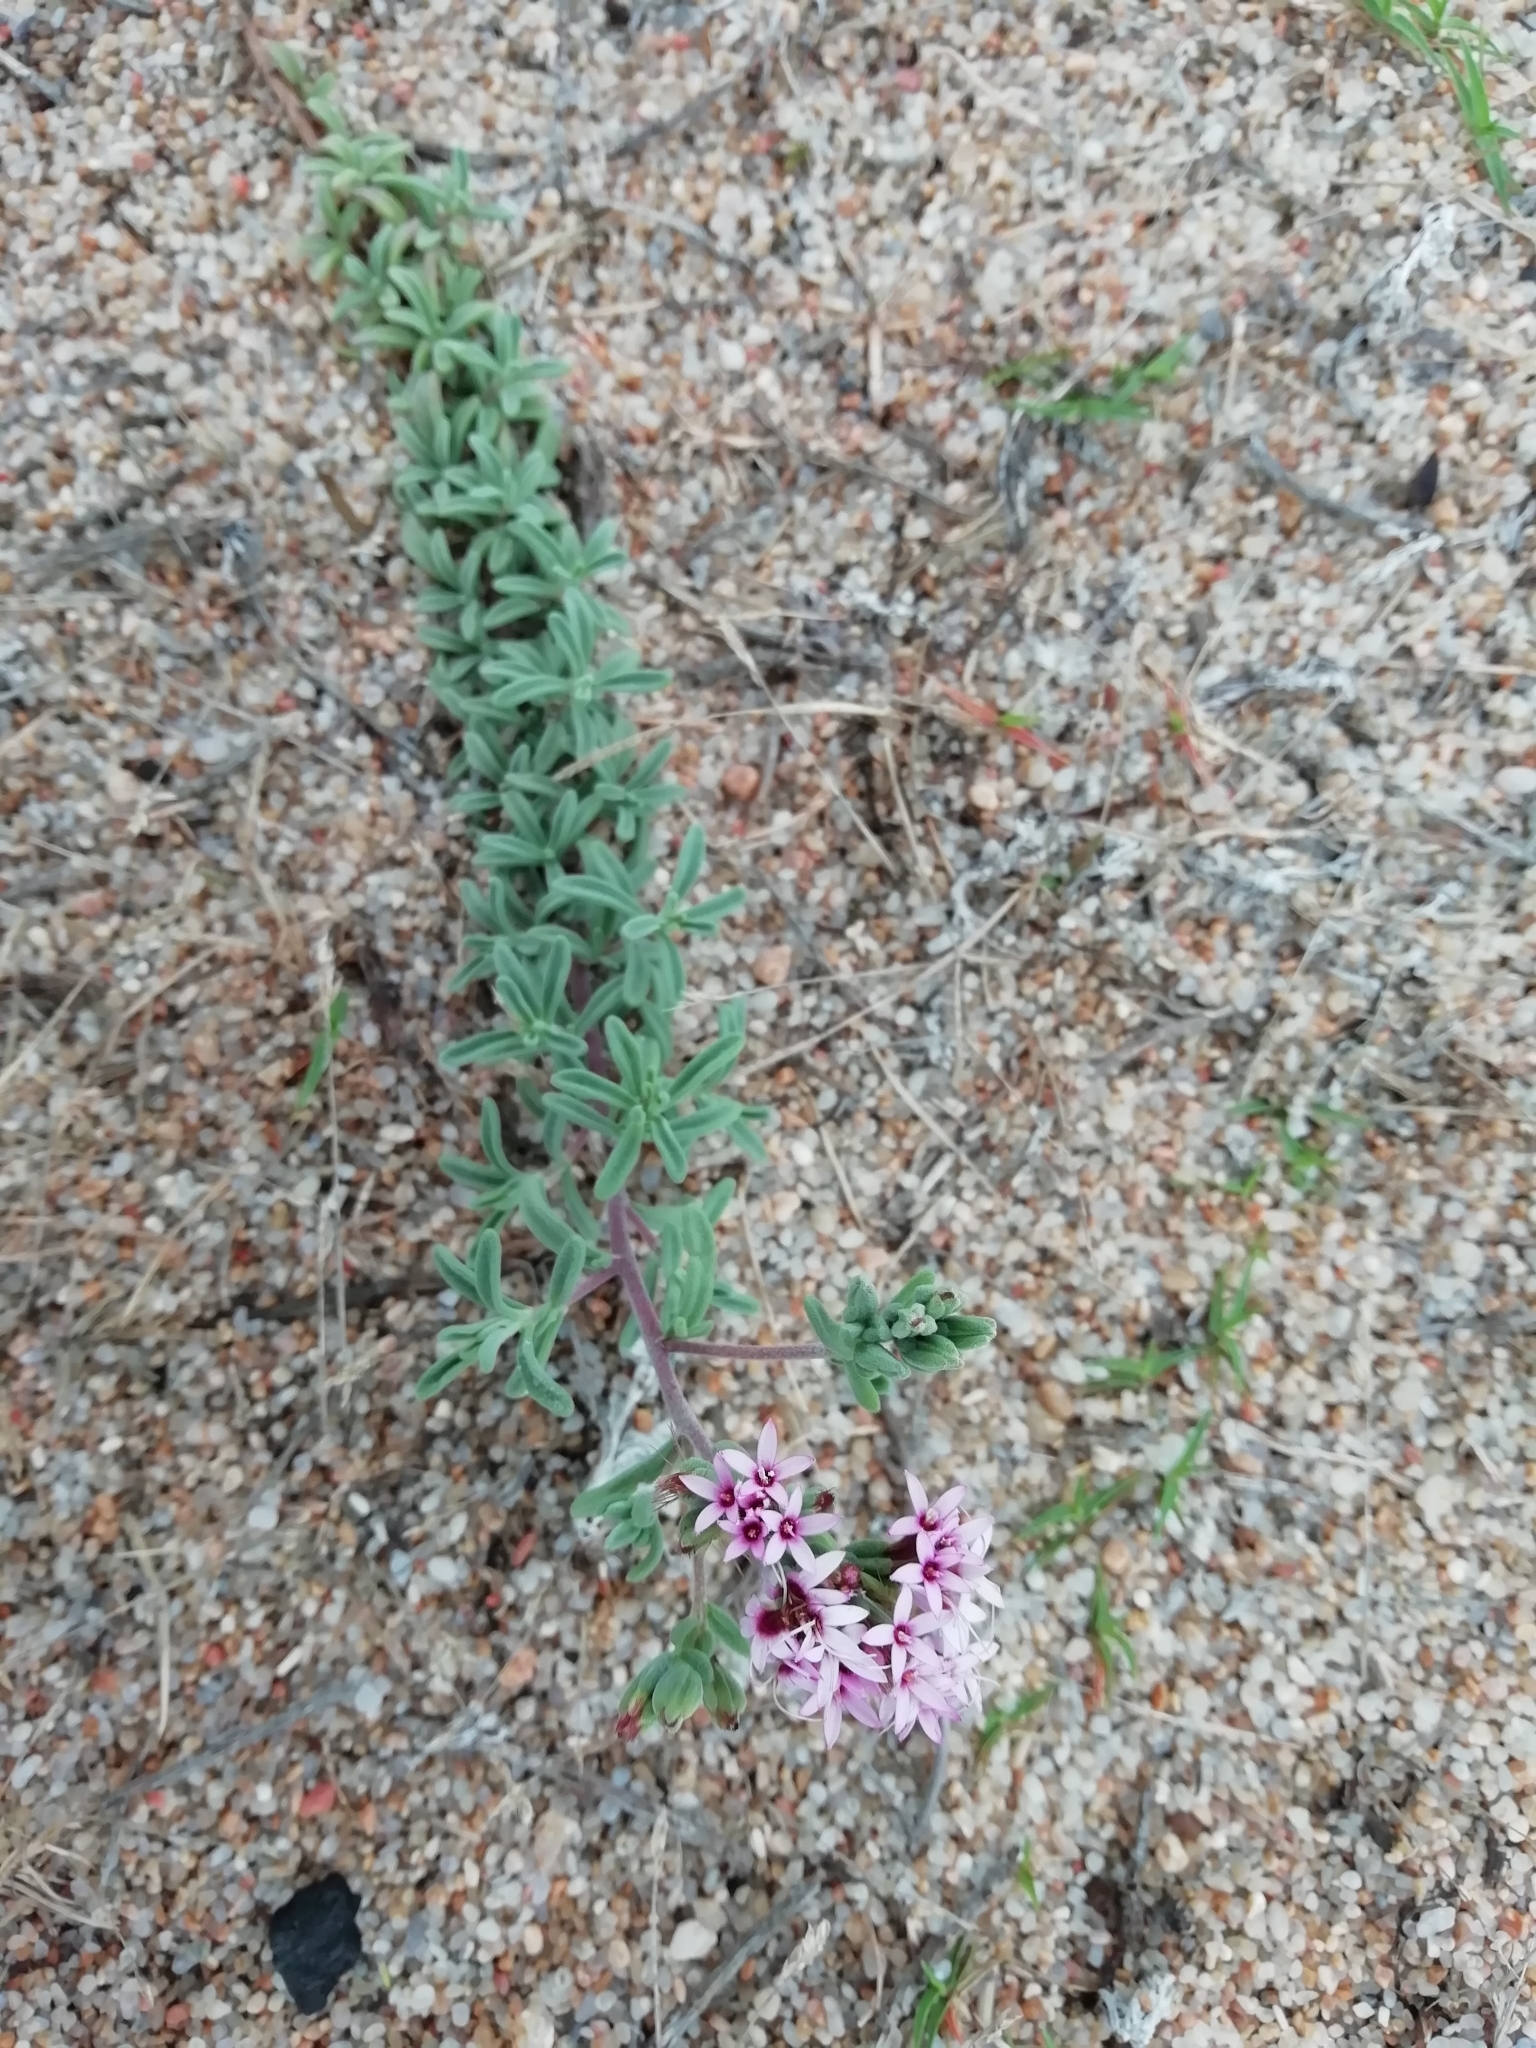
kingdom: Plantae
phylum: Tracheophyta
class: Magnoliopsida
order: Asterales
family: Asteraceae
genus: Stevia
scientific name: Stevia satureifolia
